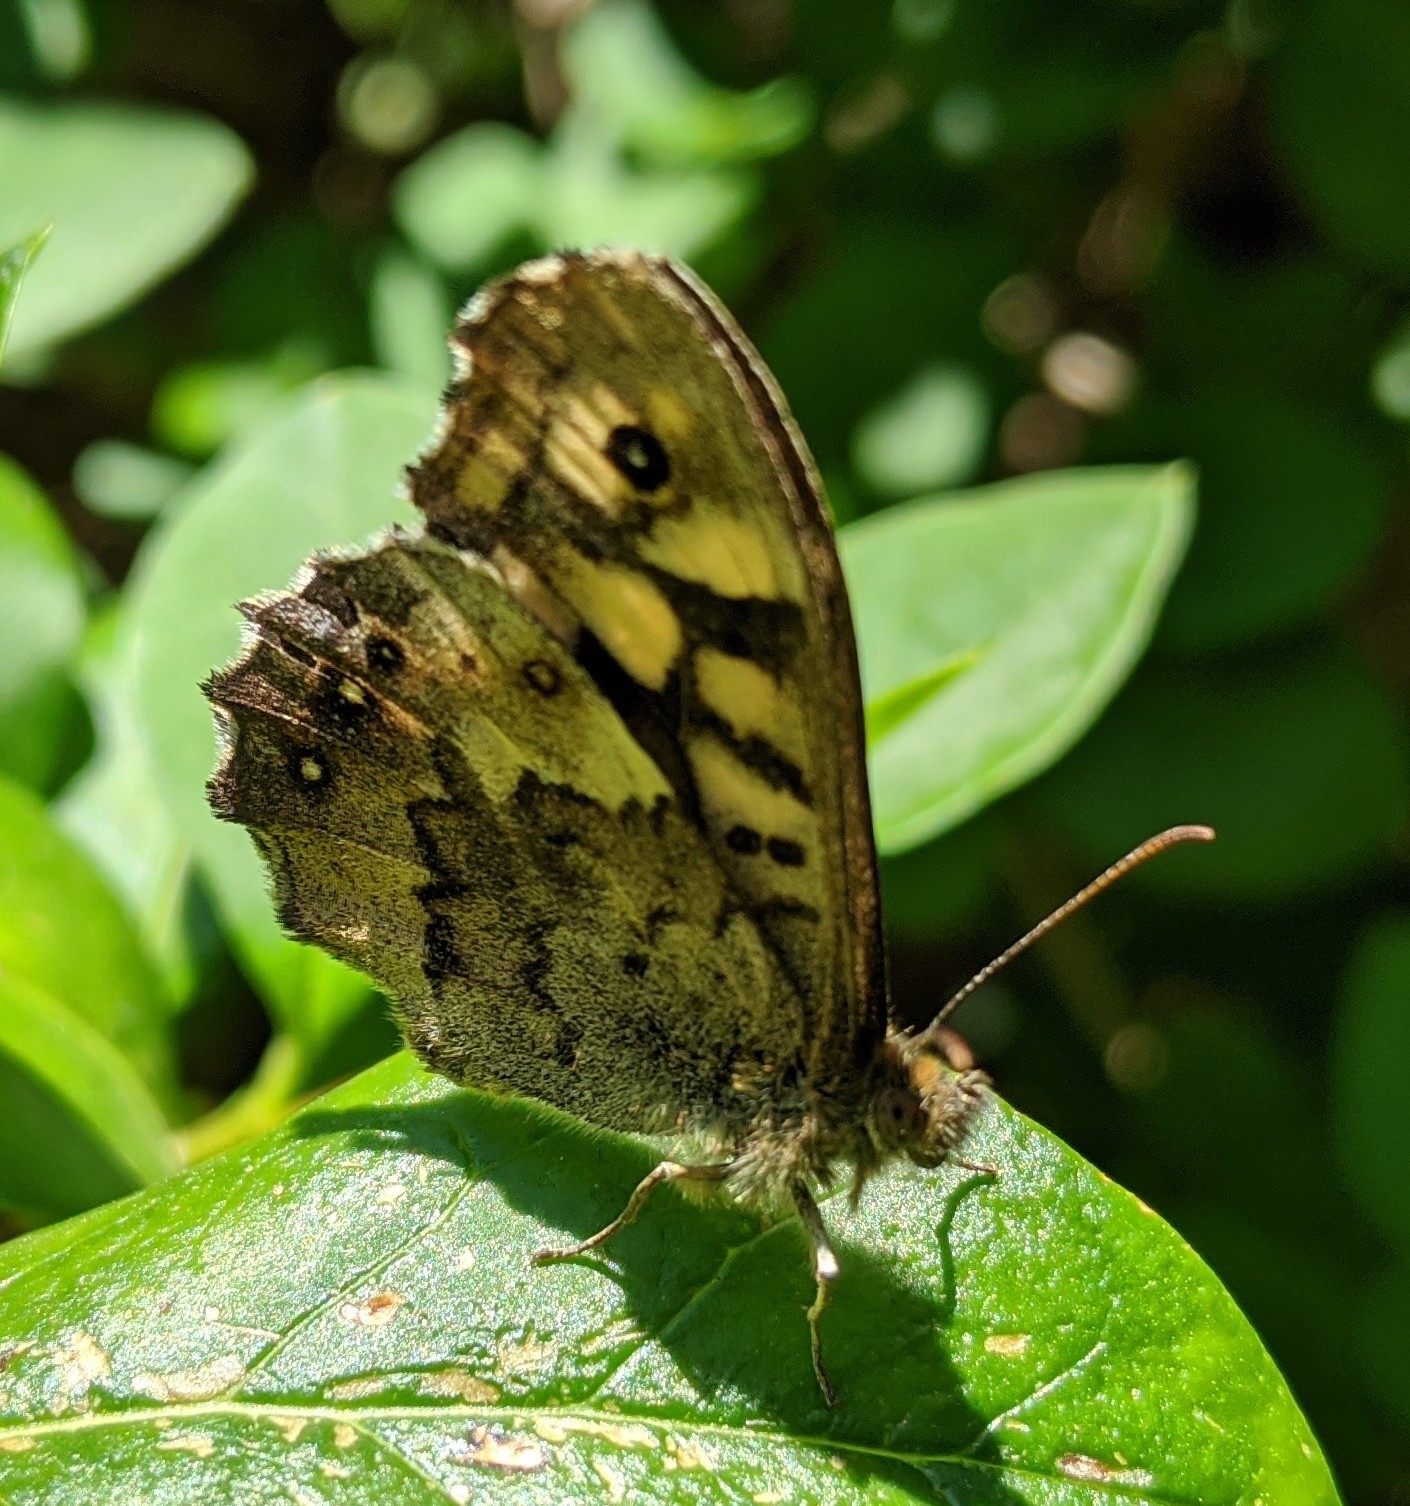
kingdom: Animalia
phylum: Arthropoda
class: Insecta
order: Lepidoptera
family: Nymphalidae
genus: Pararge
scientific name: Pararge aegeria
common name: Speckled wood
